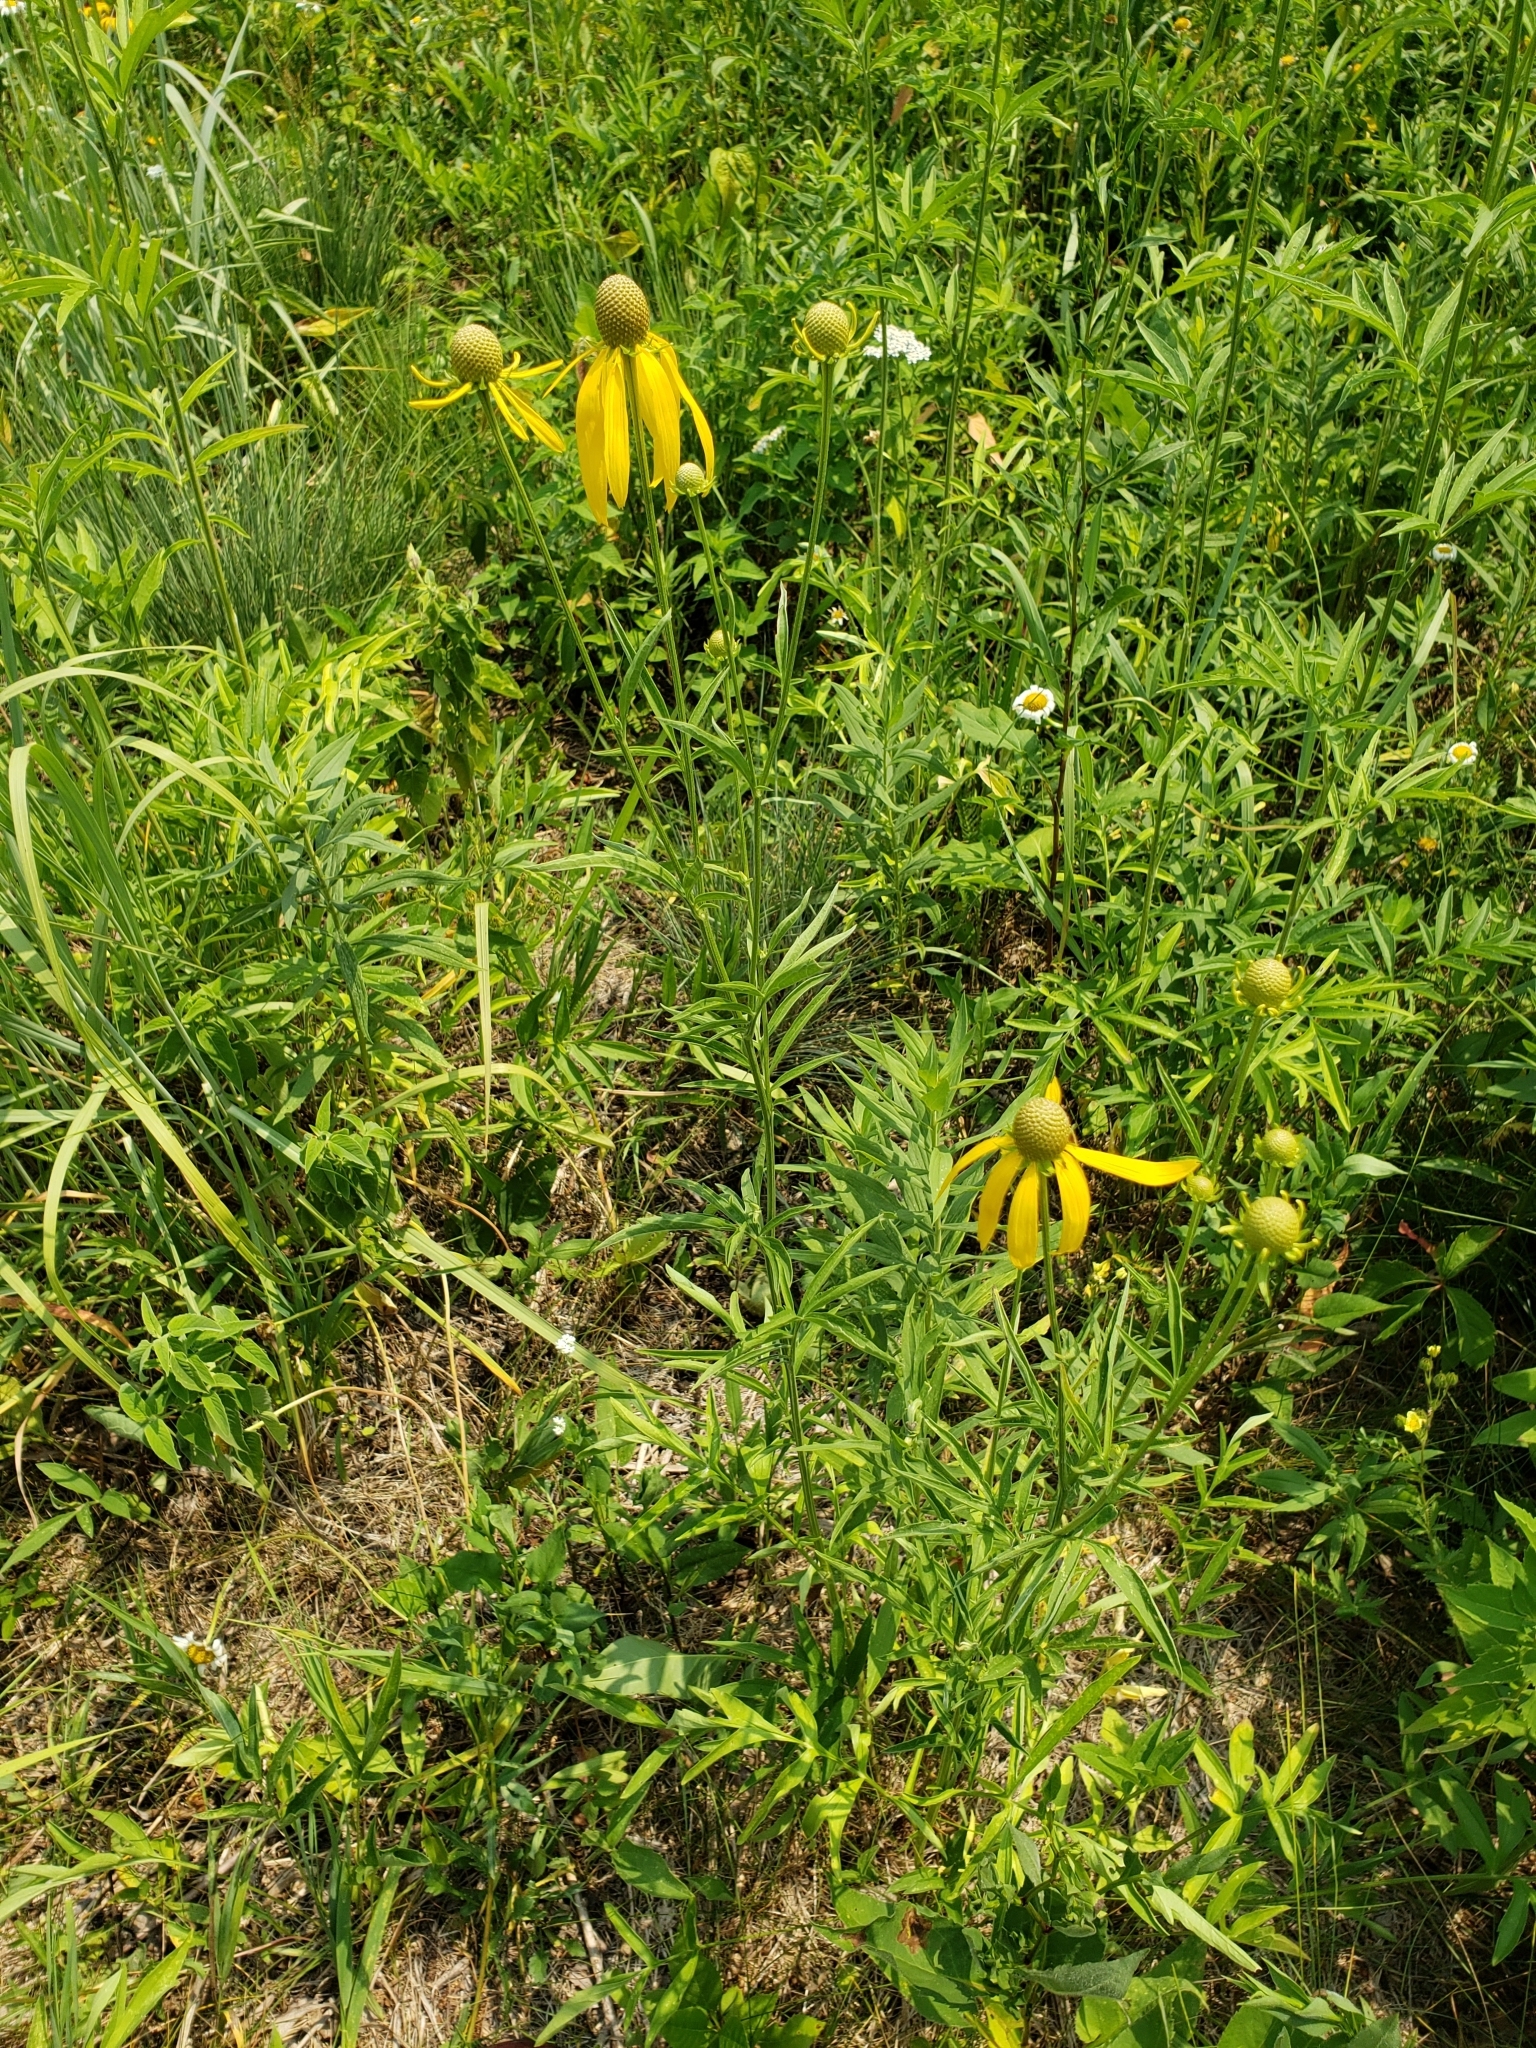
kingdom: Plantae
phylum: Tracheophyta
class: Magnoliopsida
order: Asterales
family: Asteraceae
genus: Ratibida
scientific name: Ratibida pinnata
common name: Drooping prairie-coneflower
